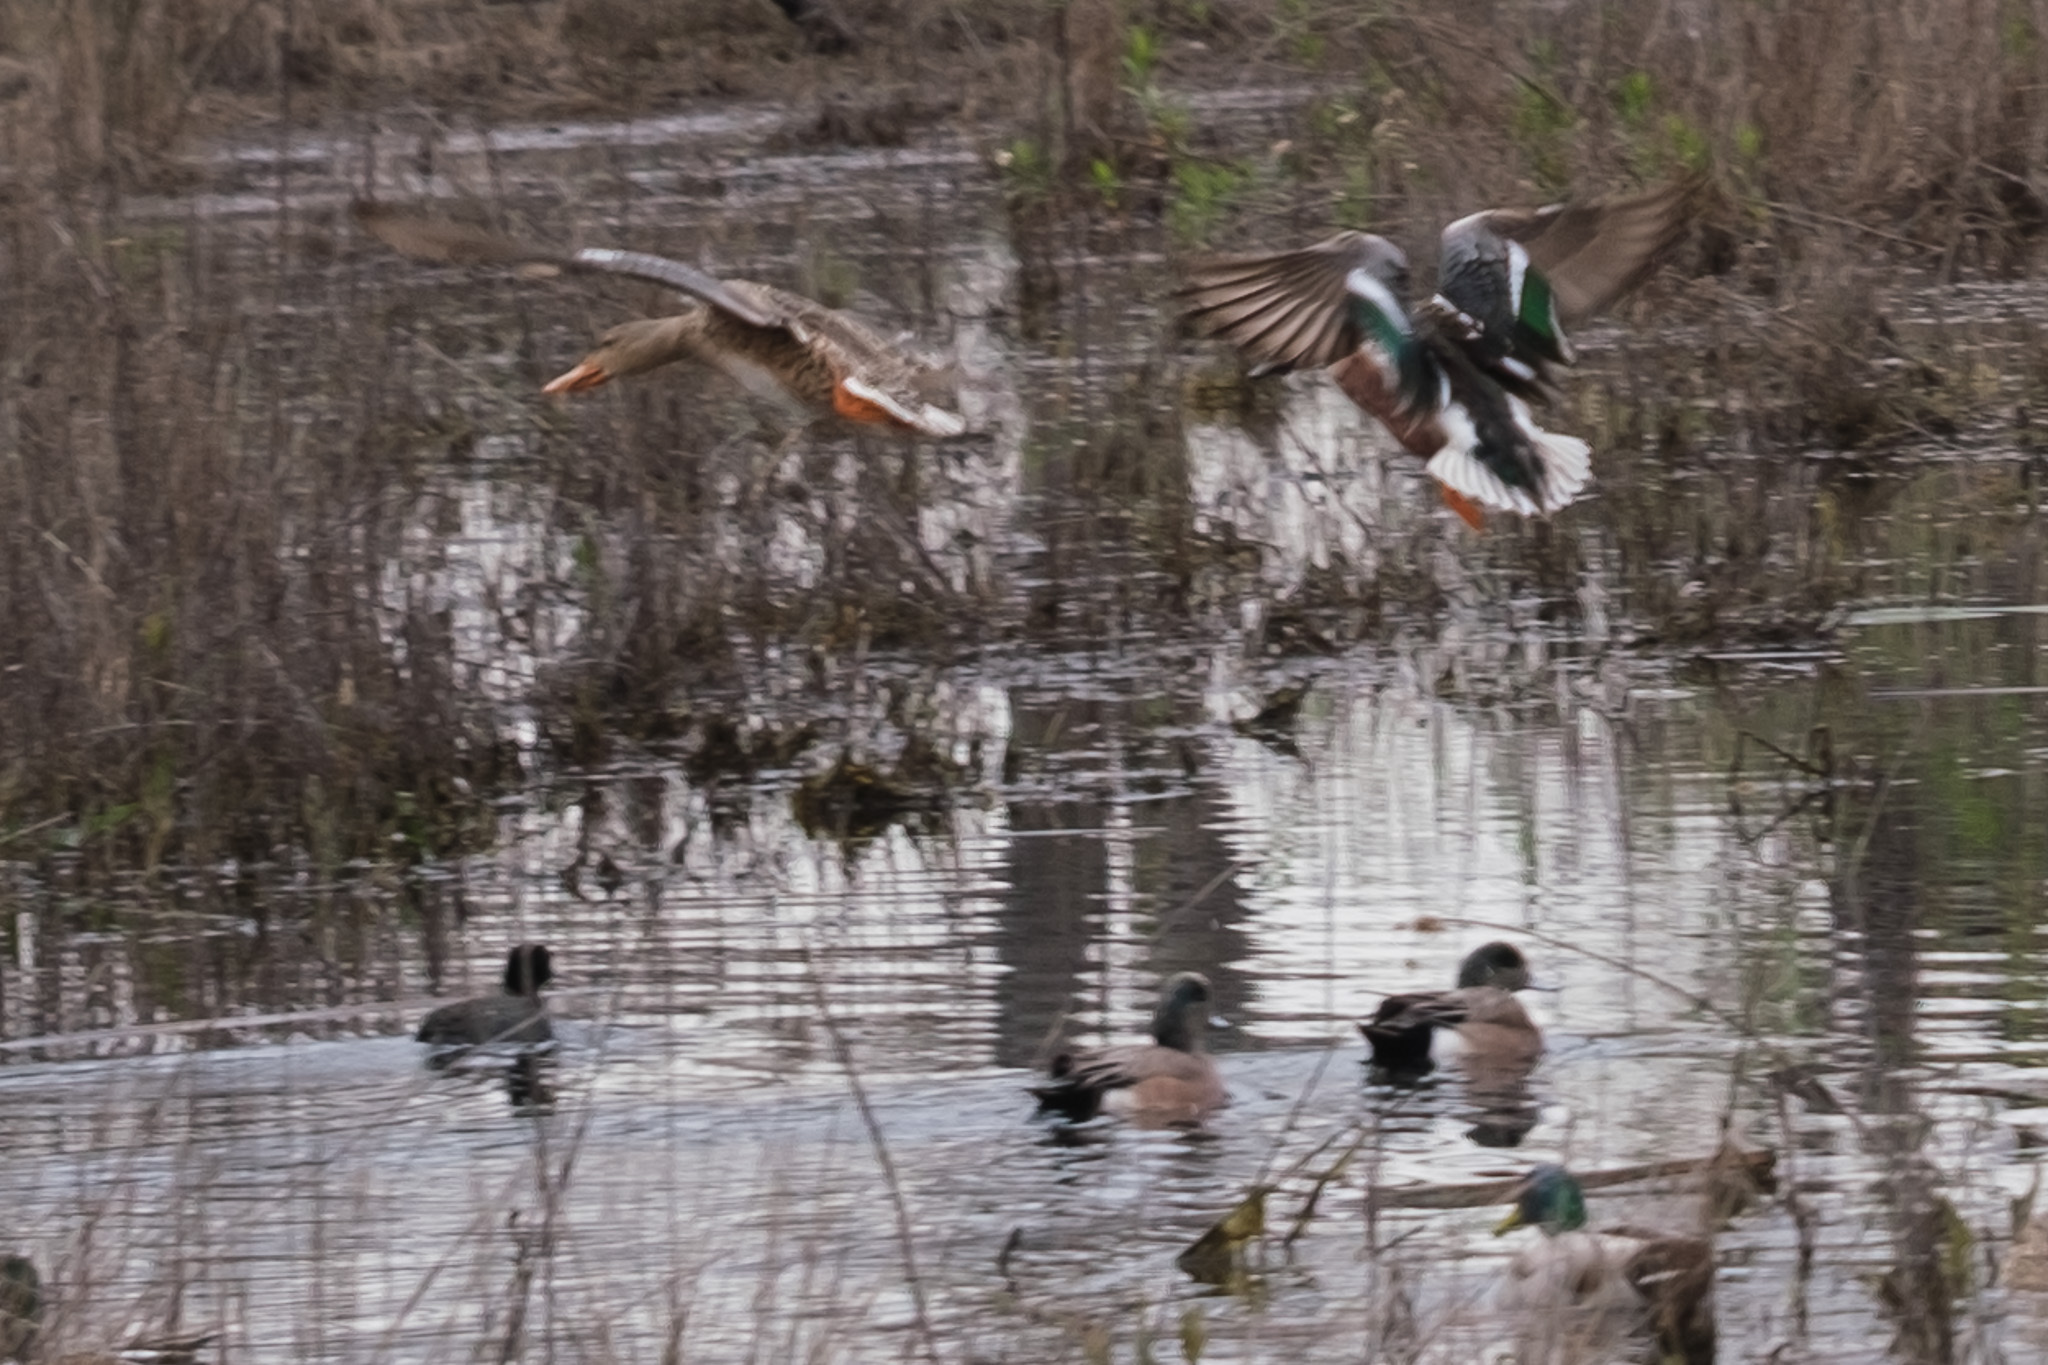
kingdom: Animalia
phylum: Chordata
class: Aves
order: Anseriformes
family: Anatidae
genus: Spatula
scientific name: Spatula clypeata
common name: Northern shoveler
